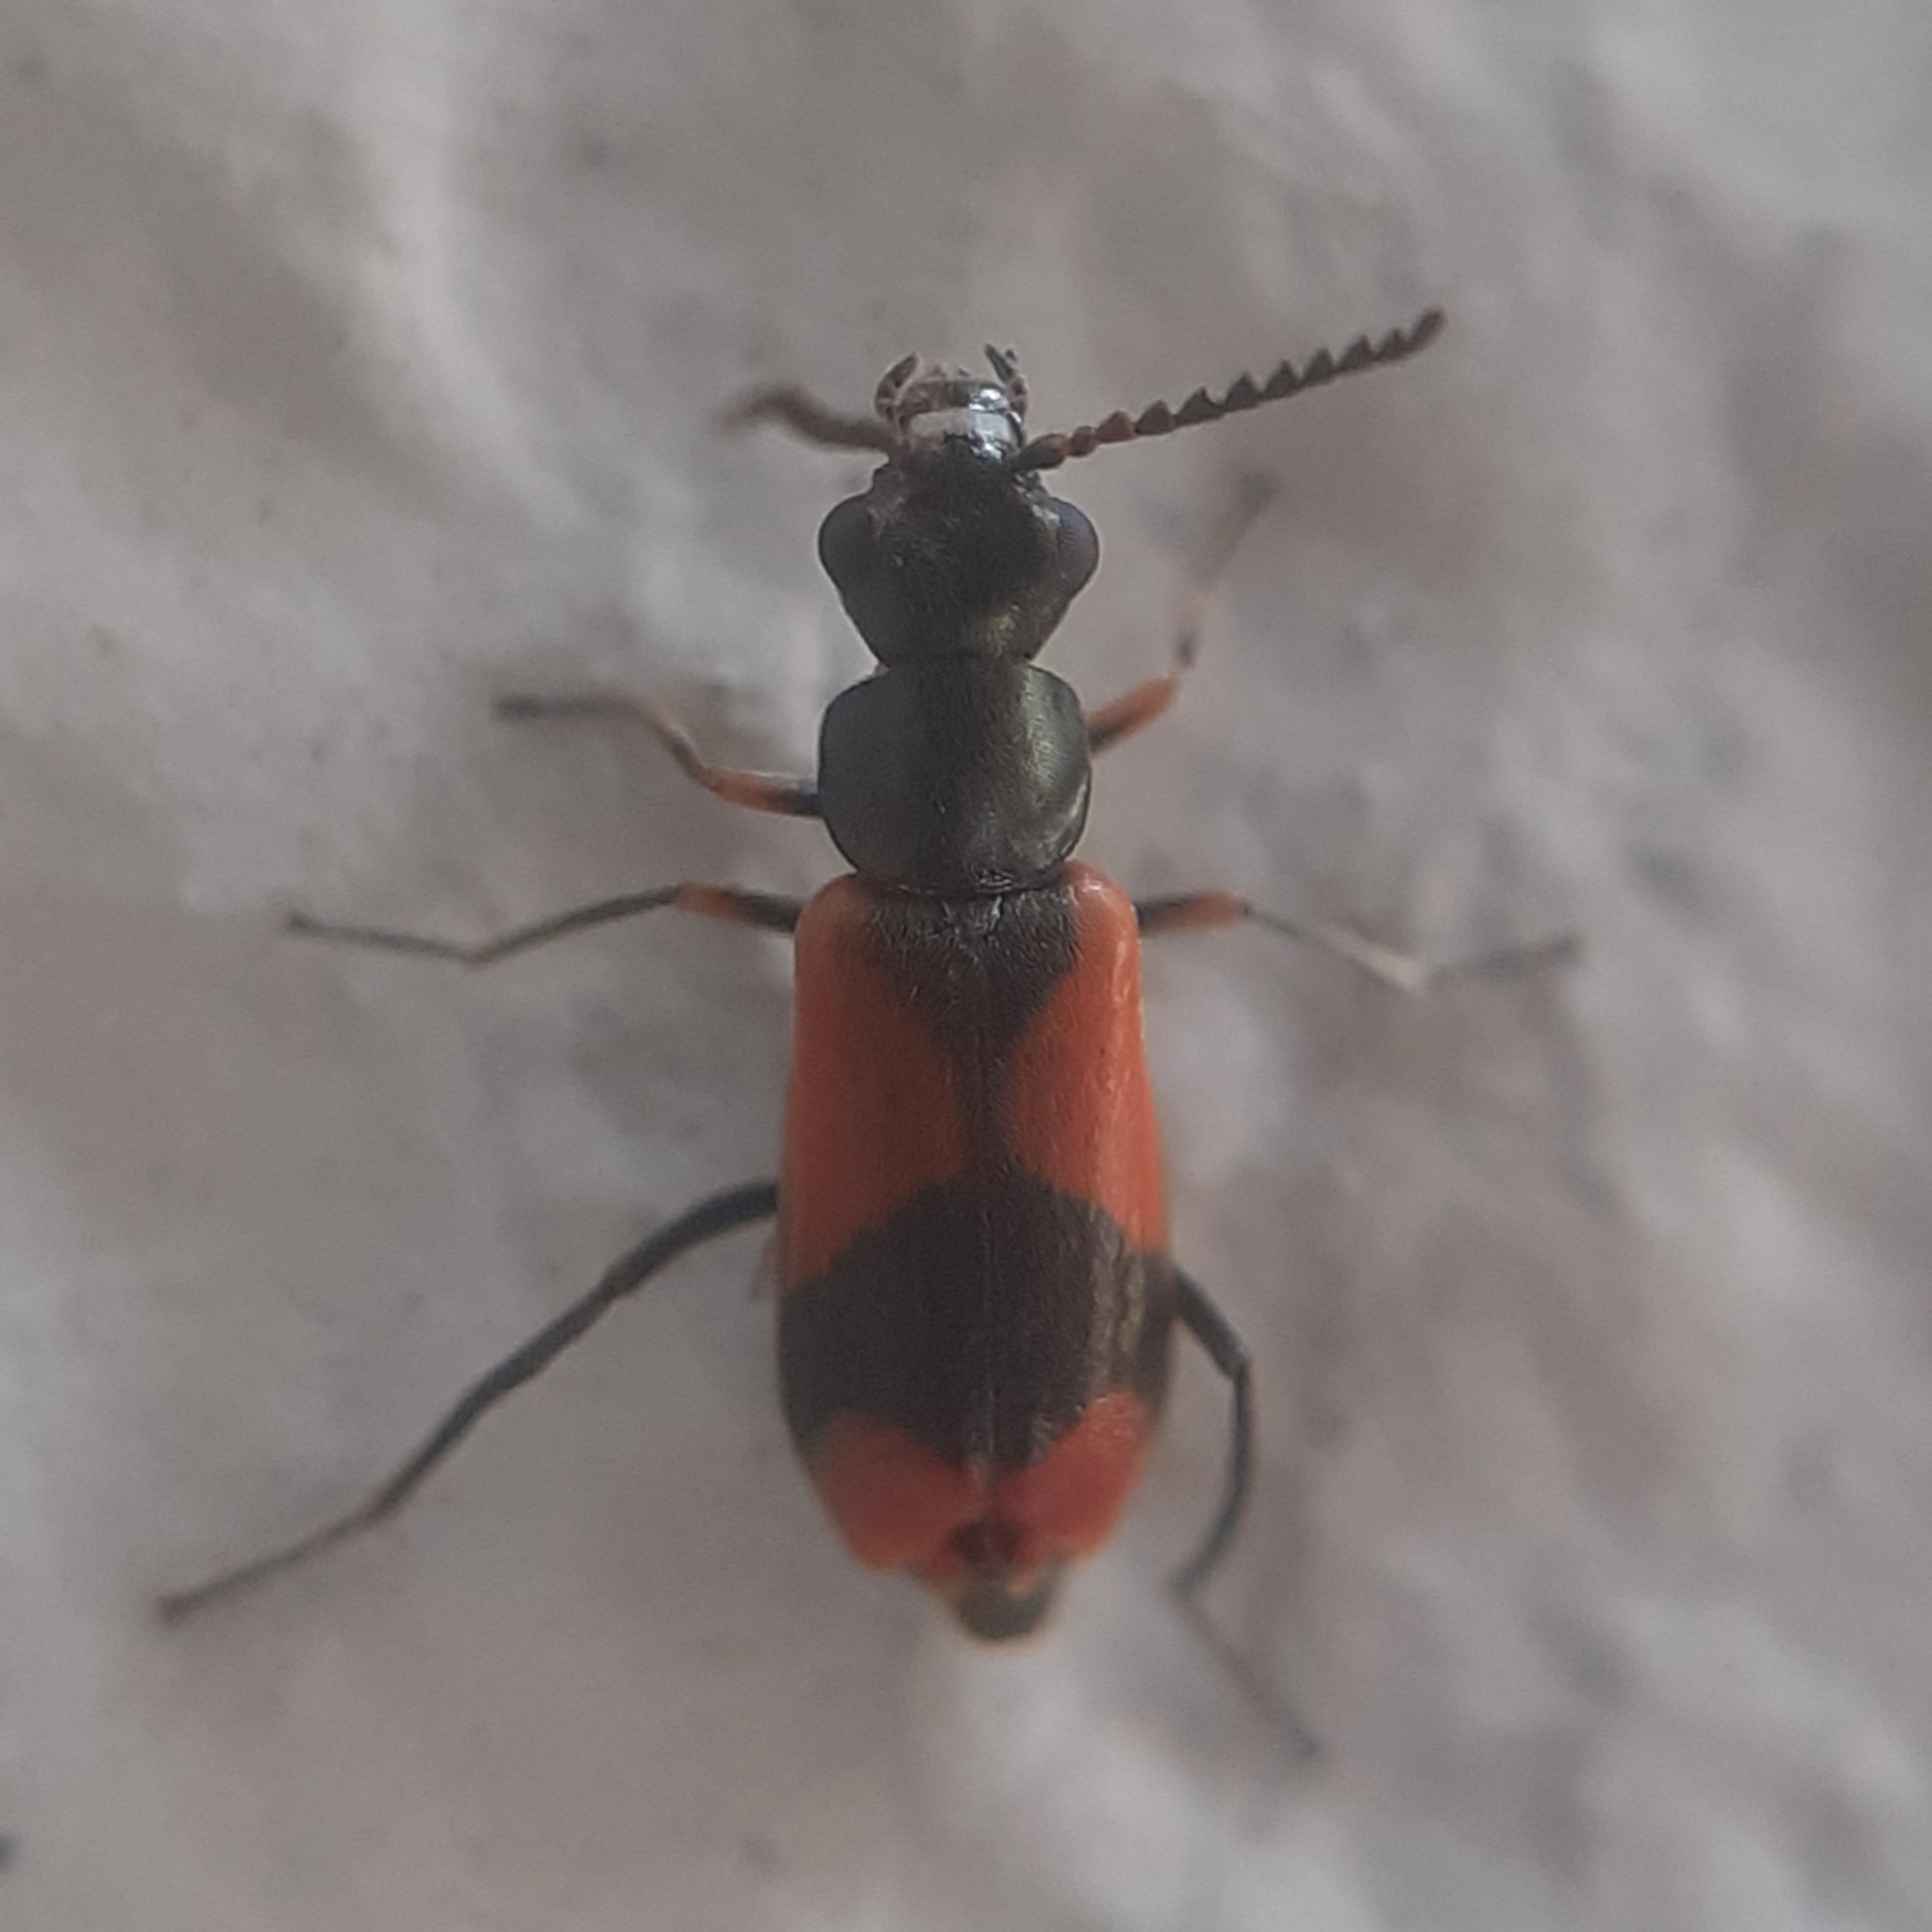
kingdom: Animalia
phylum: Arthropoda
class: Insecta
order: Coleoptera
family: Melyridae
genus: Anthocomus
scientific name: Anthocomus equestris
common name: Black-banded soft-winged flower beetle
